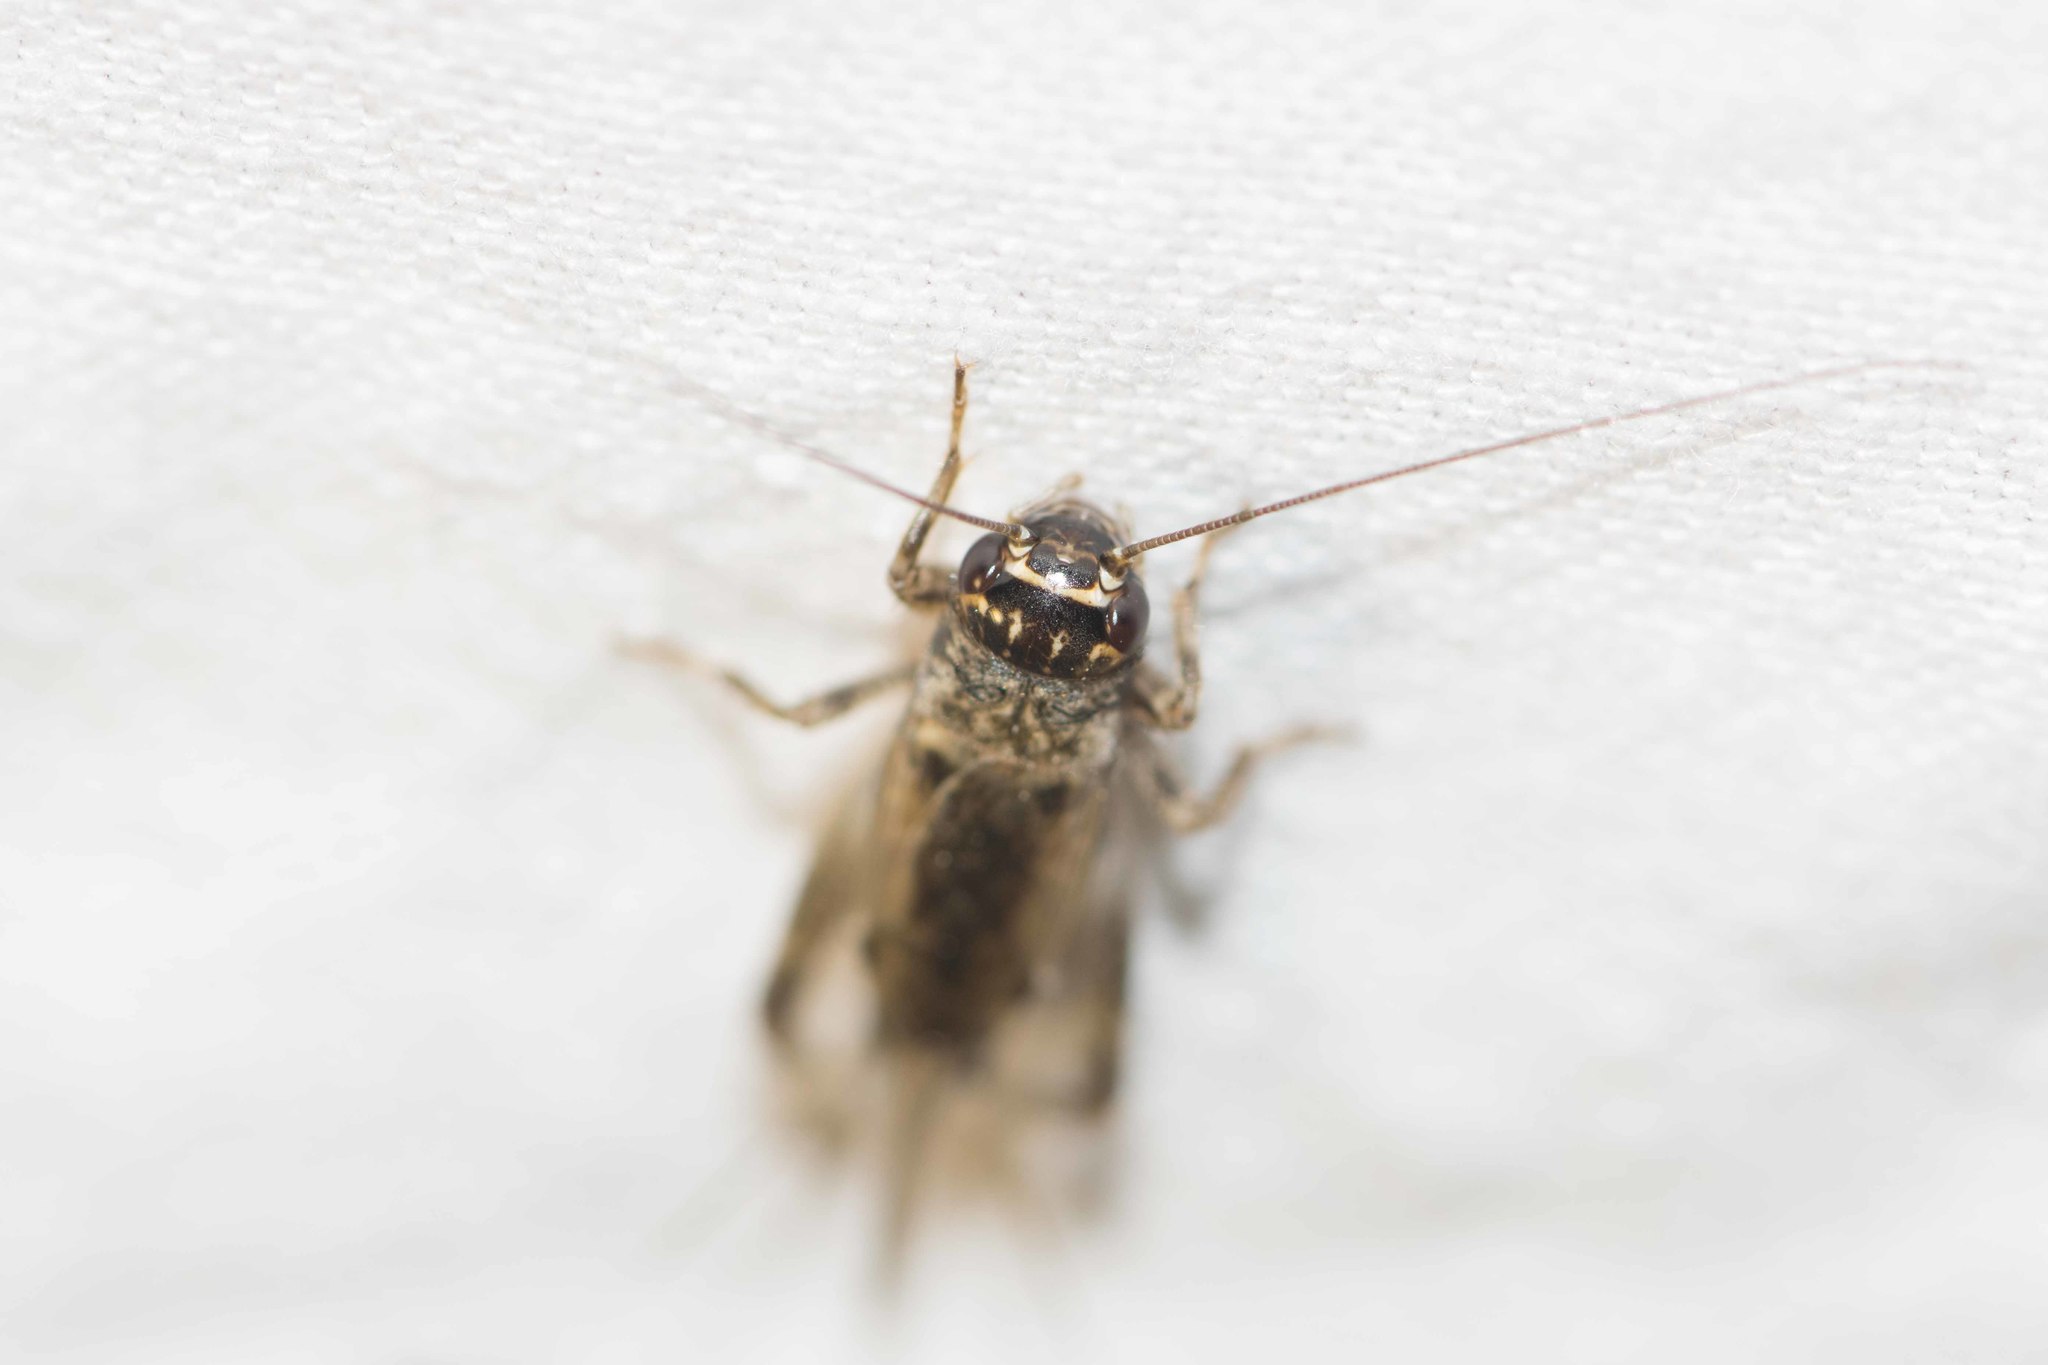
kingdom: Animalia
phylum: Arthropoda
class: Insecta
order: Orthoptera
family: Gryllidae
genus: Eumodicogryllus
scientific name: Eumodicogryllus bordigalensis
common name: Bordeaux cricket
